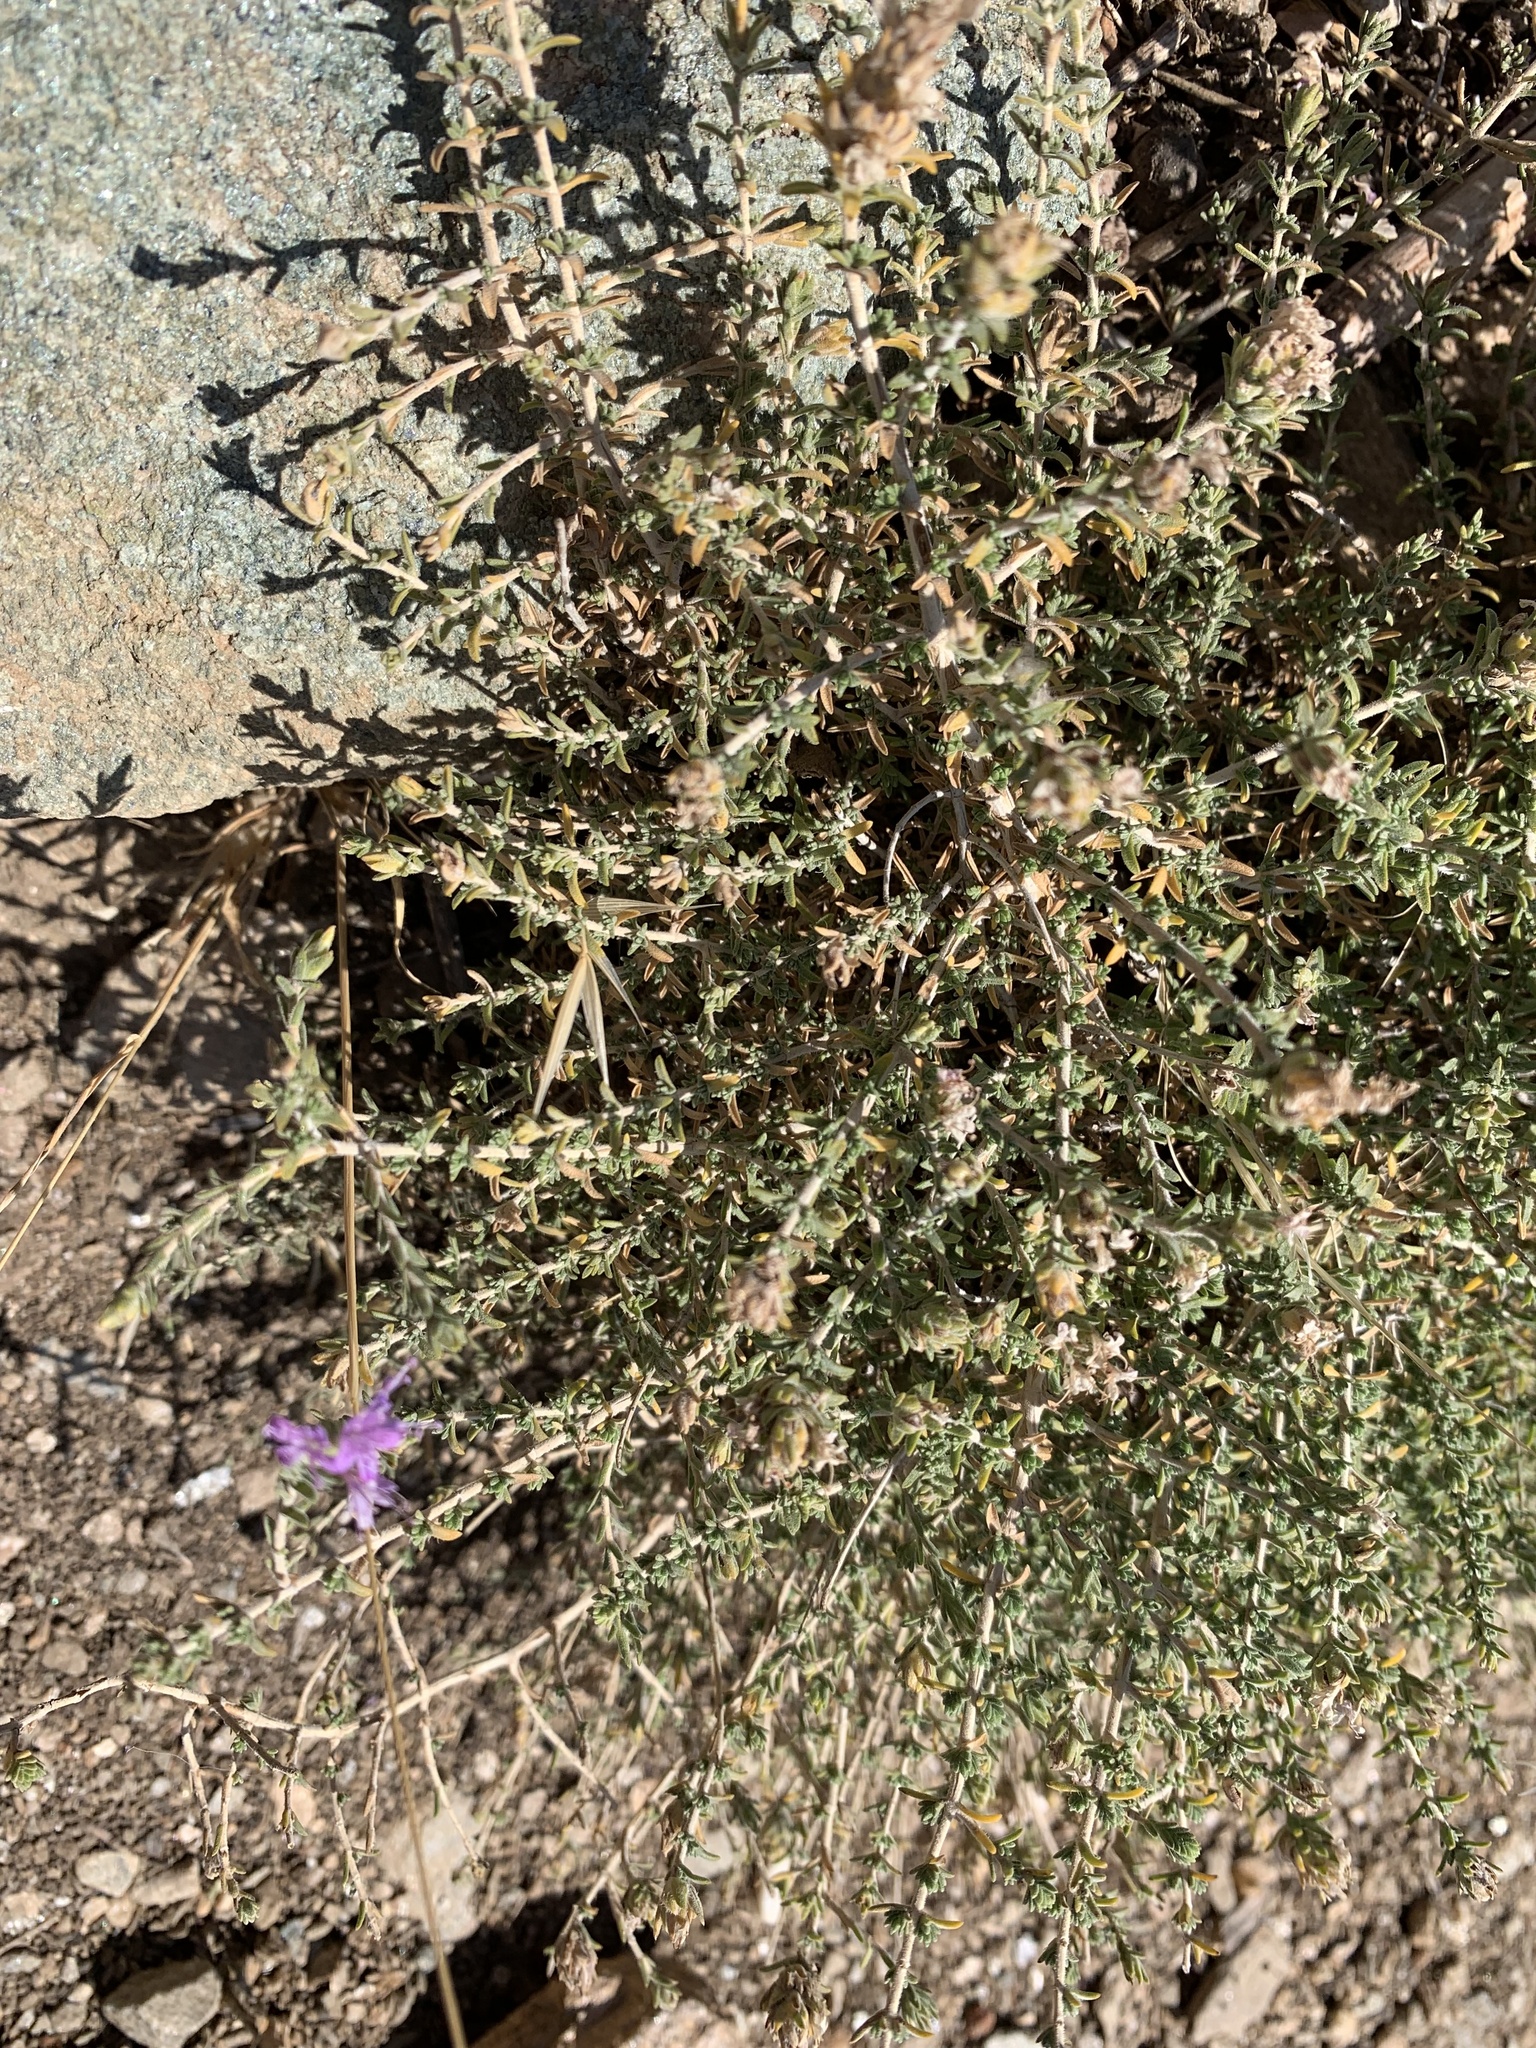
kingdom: Plantae
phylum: Tracheophyta
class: Magnoliopsida
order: Lamiales
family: Lamiaceae
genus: Thymbra
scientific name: Thymbra capitata
